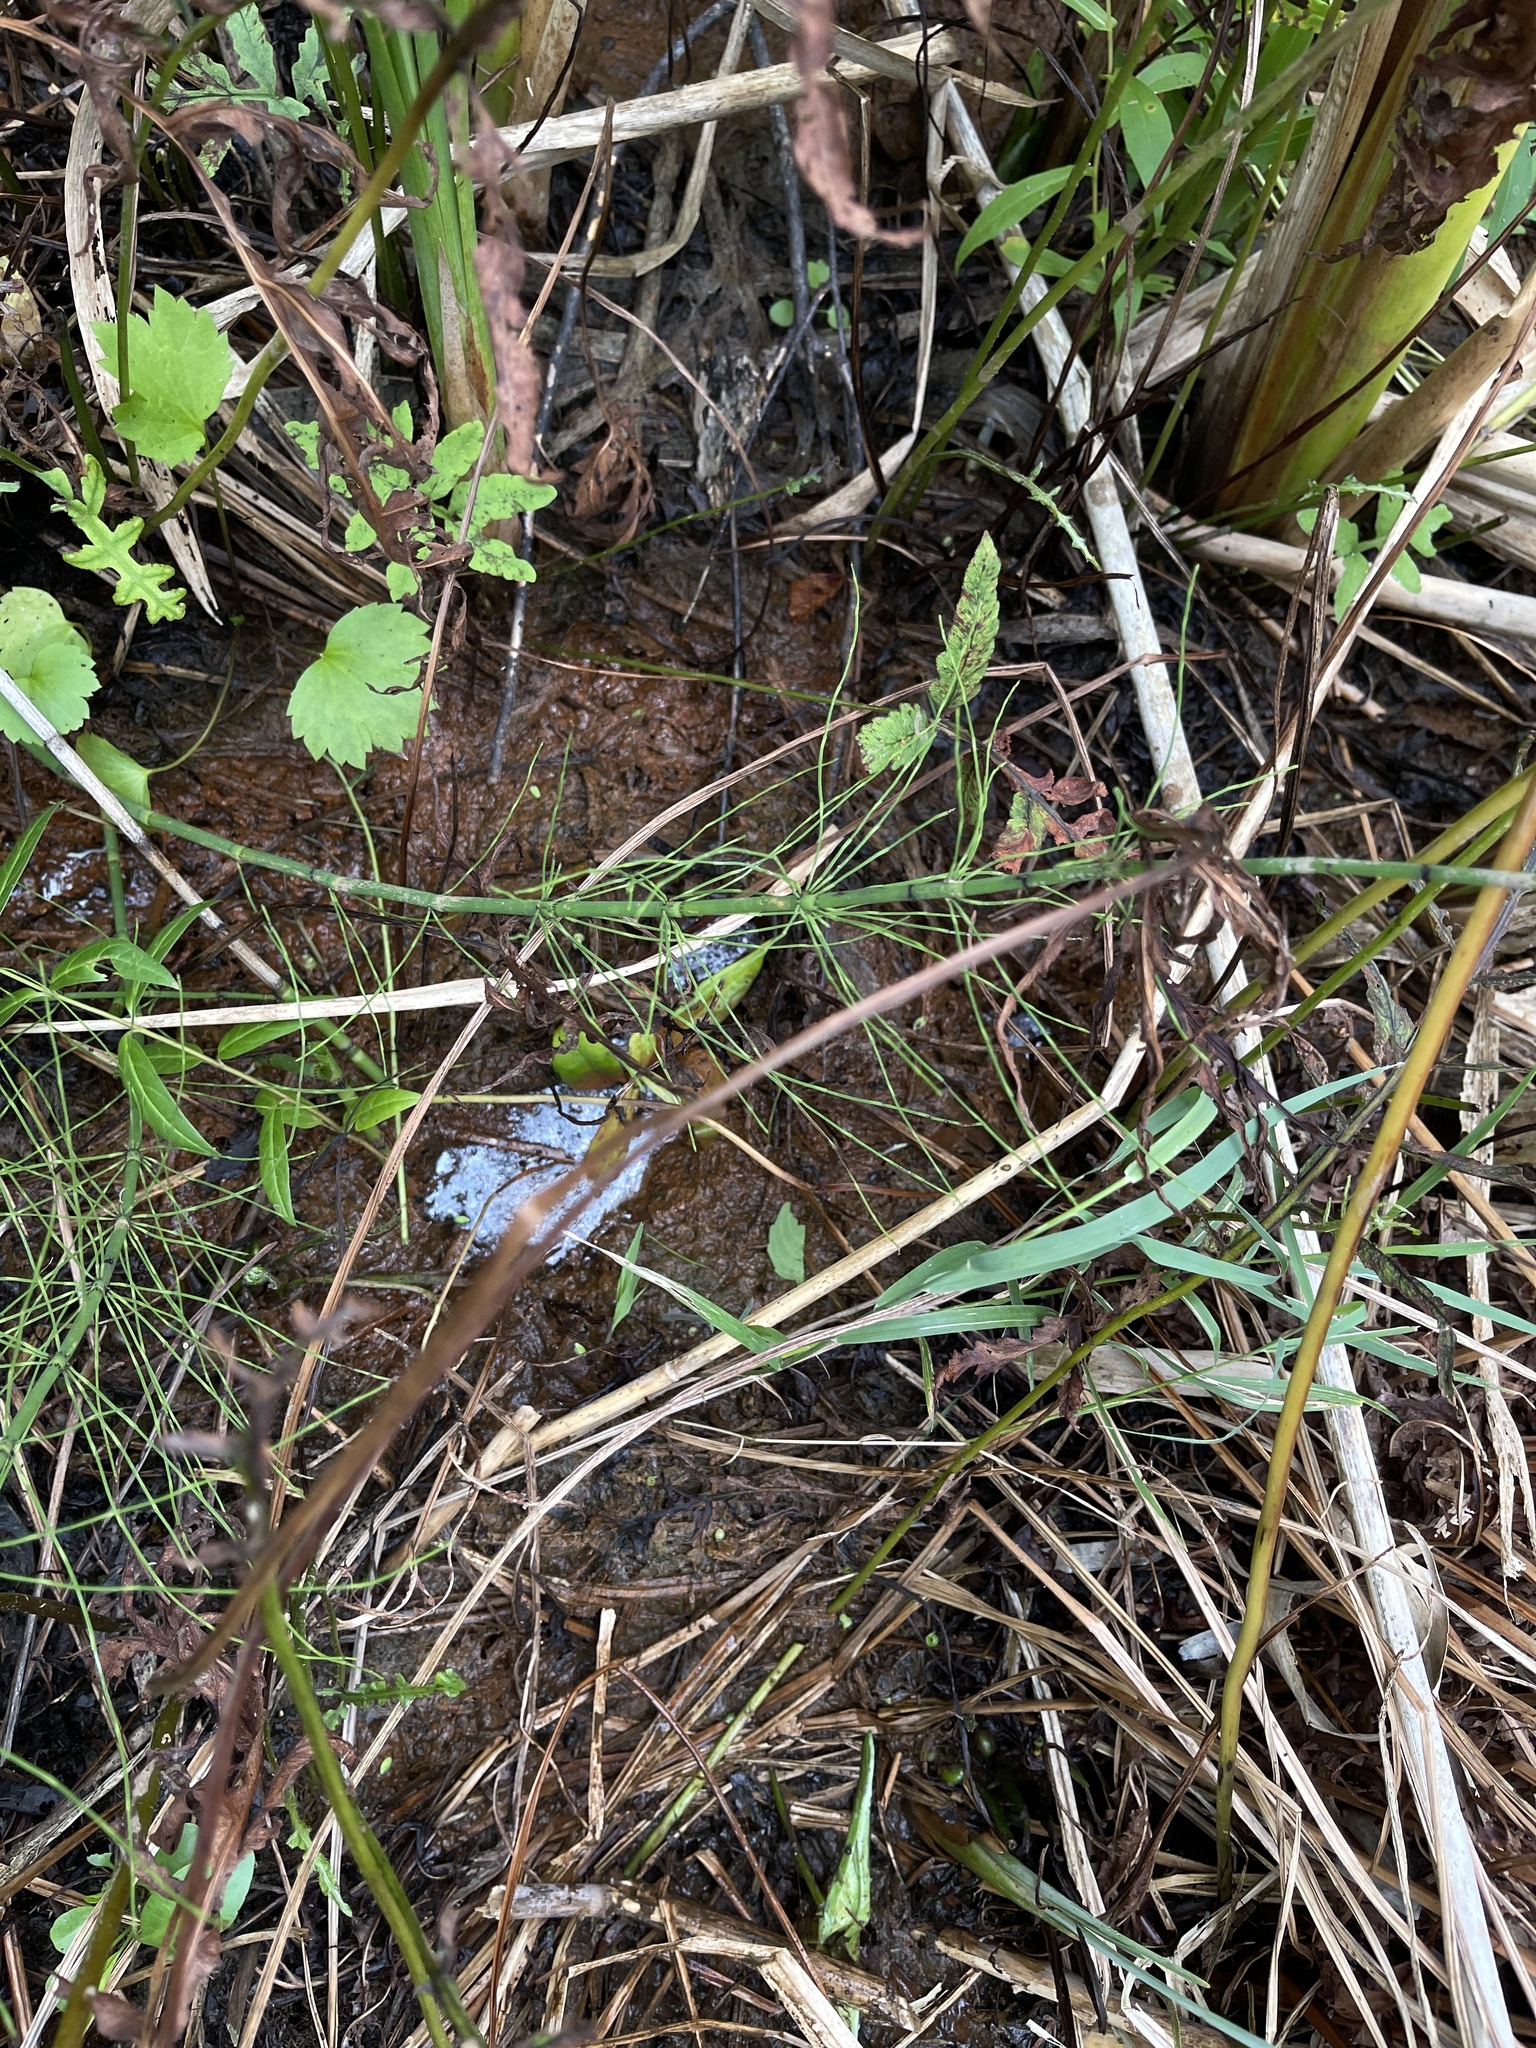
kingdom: Plantae
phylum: Tracheophyta
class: Polypodiopsida
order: Equisetales
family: Equisetaceae
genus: Equisetum
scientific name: Equisetum fluviatile
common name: Water horsetail
